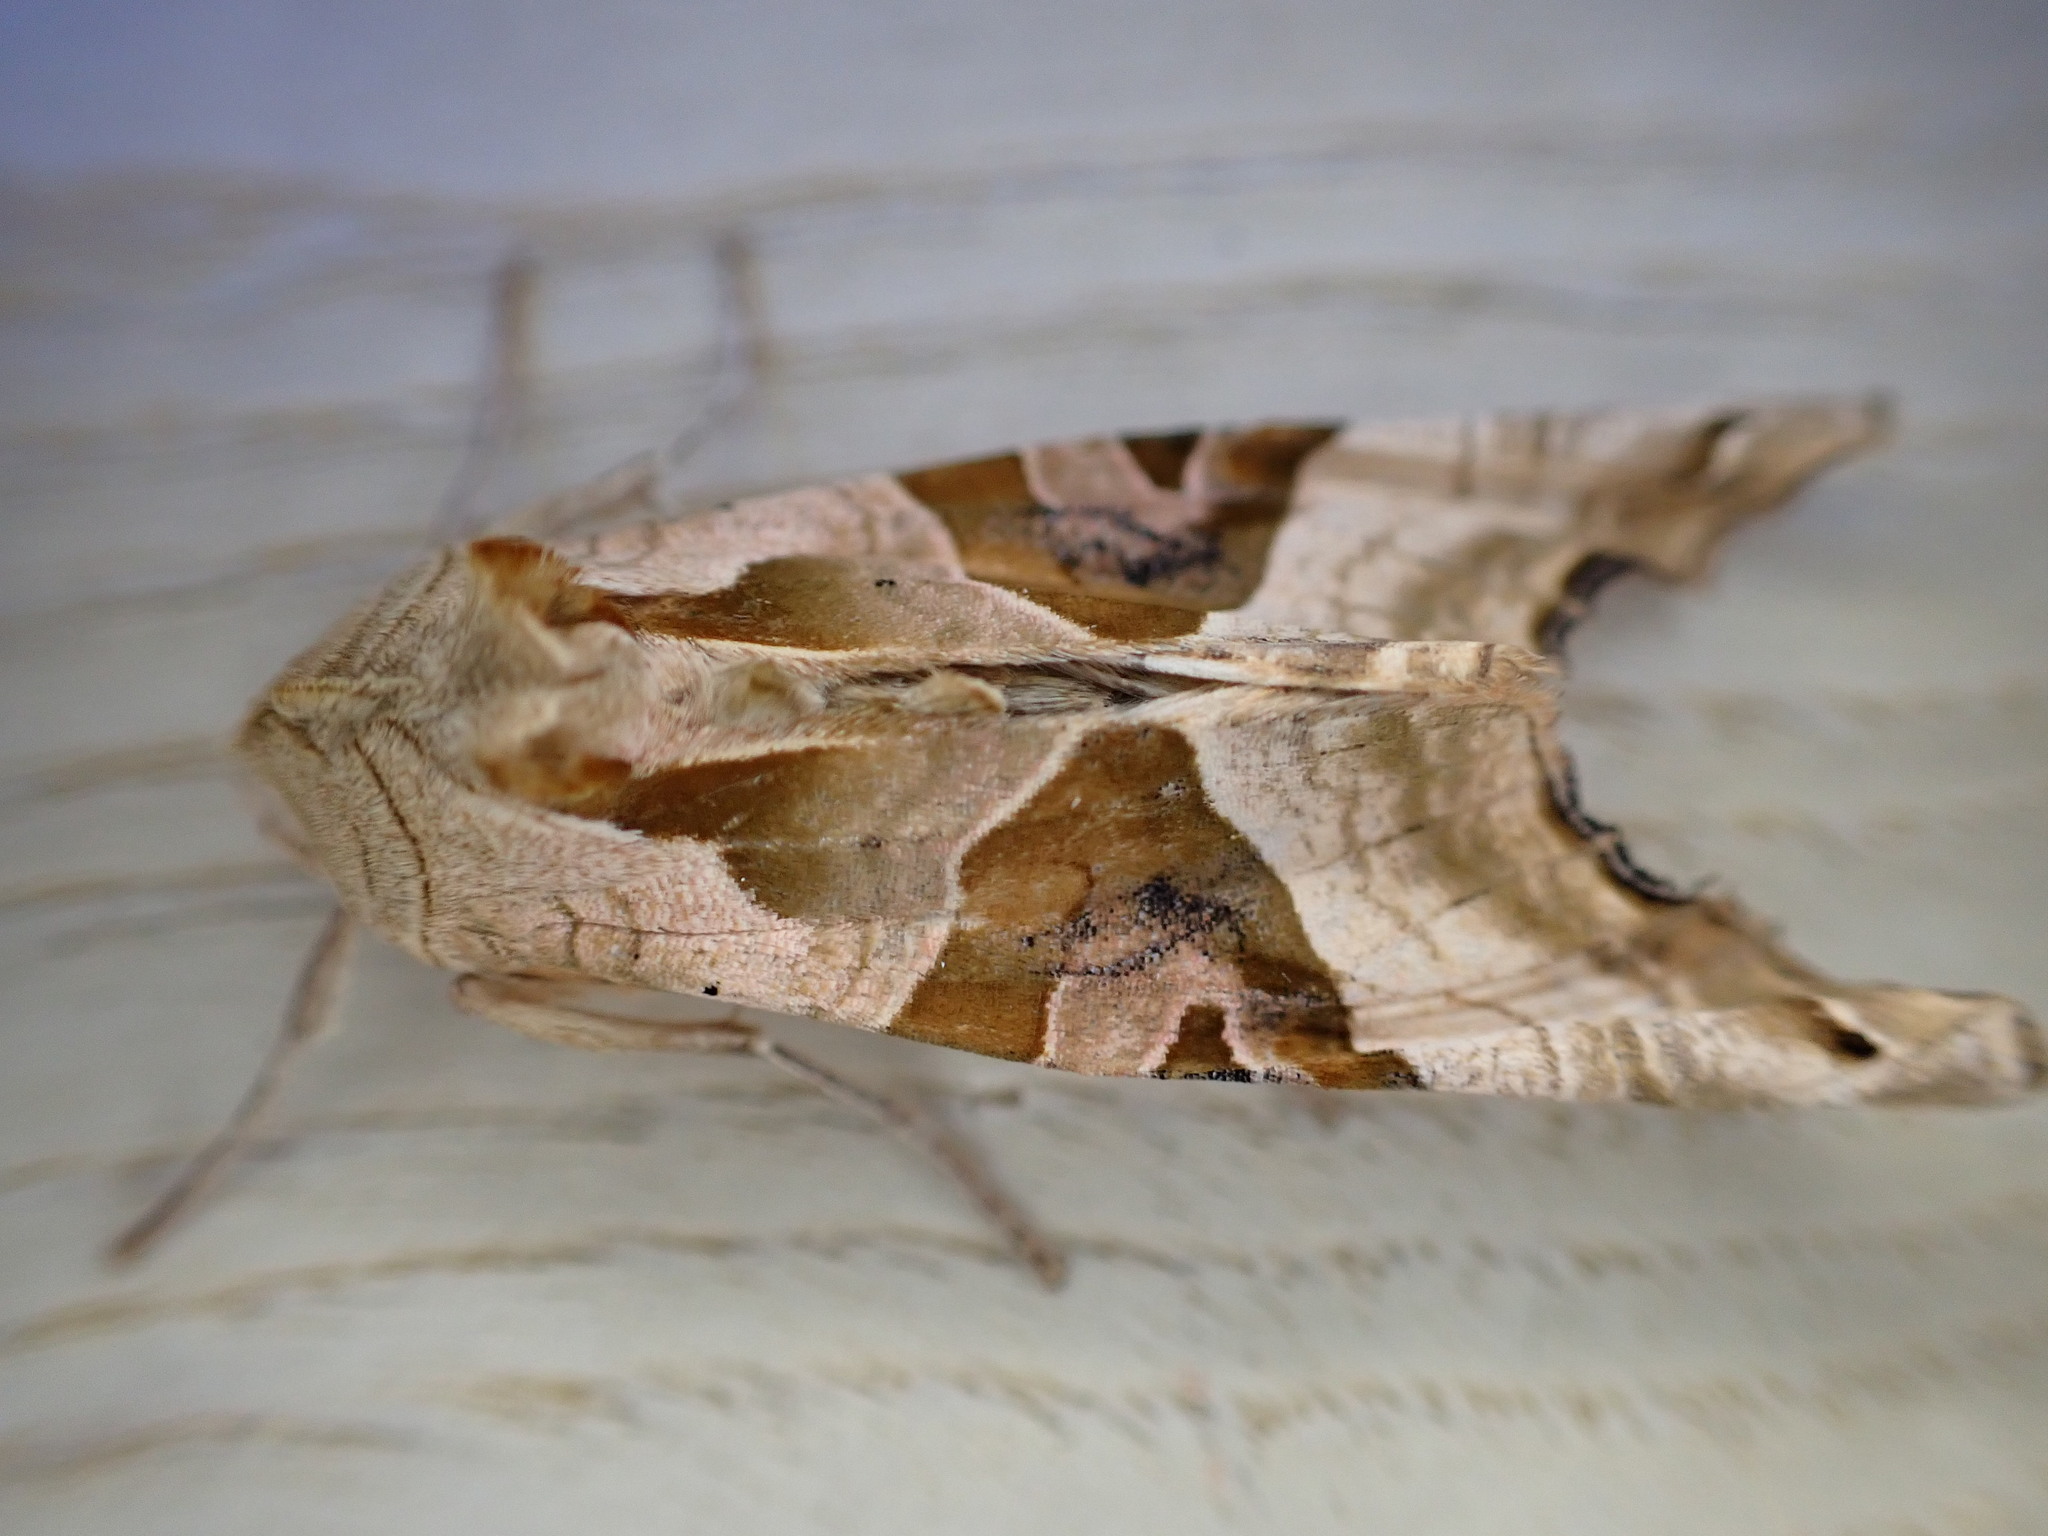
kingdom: Animalia
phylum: Arthropoda
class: Insecta
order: Lepidoptera
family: Noctuidae
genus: Phlogophora
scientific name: Phlogophora meticulosa
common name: Angle shades
